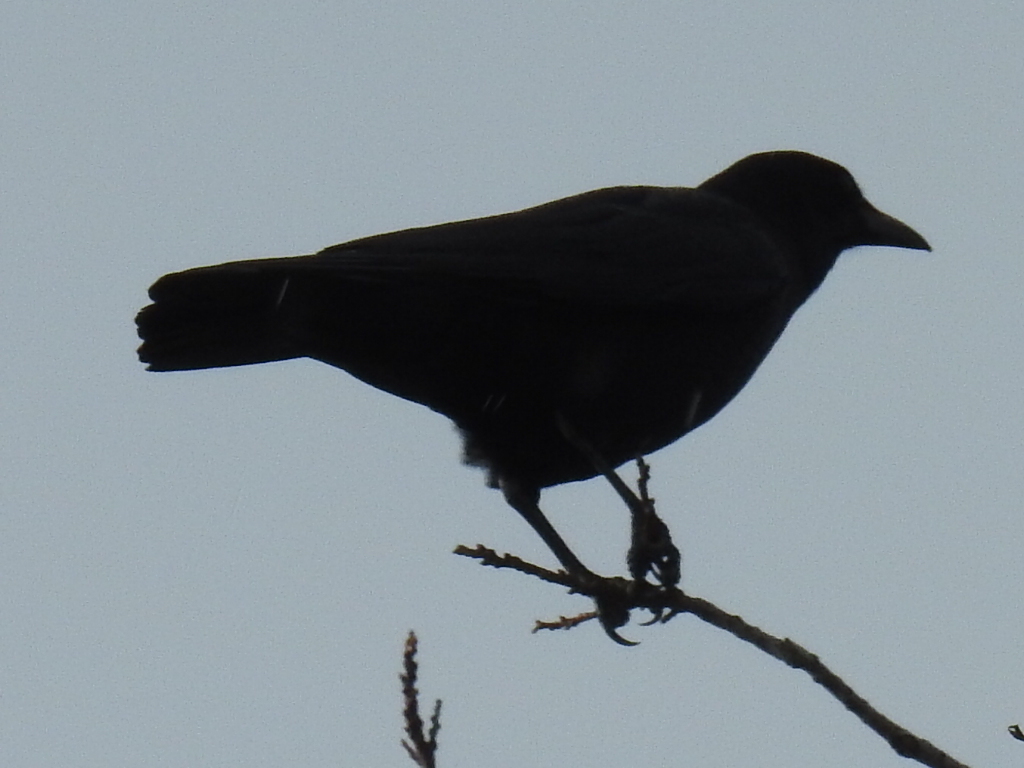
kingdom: Animalia
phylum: Chordata
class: Aves
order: Passeriformes
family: Corvidae
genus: Corvus
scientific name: Corvus brachyrhynchos
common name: American crow
